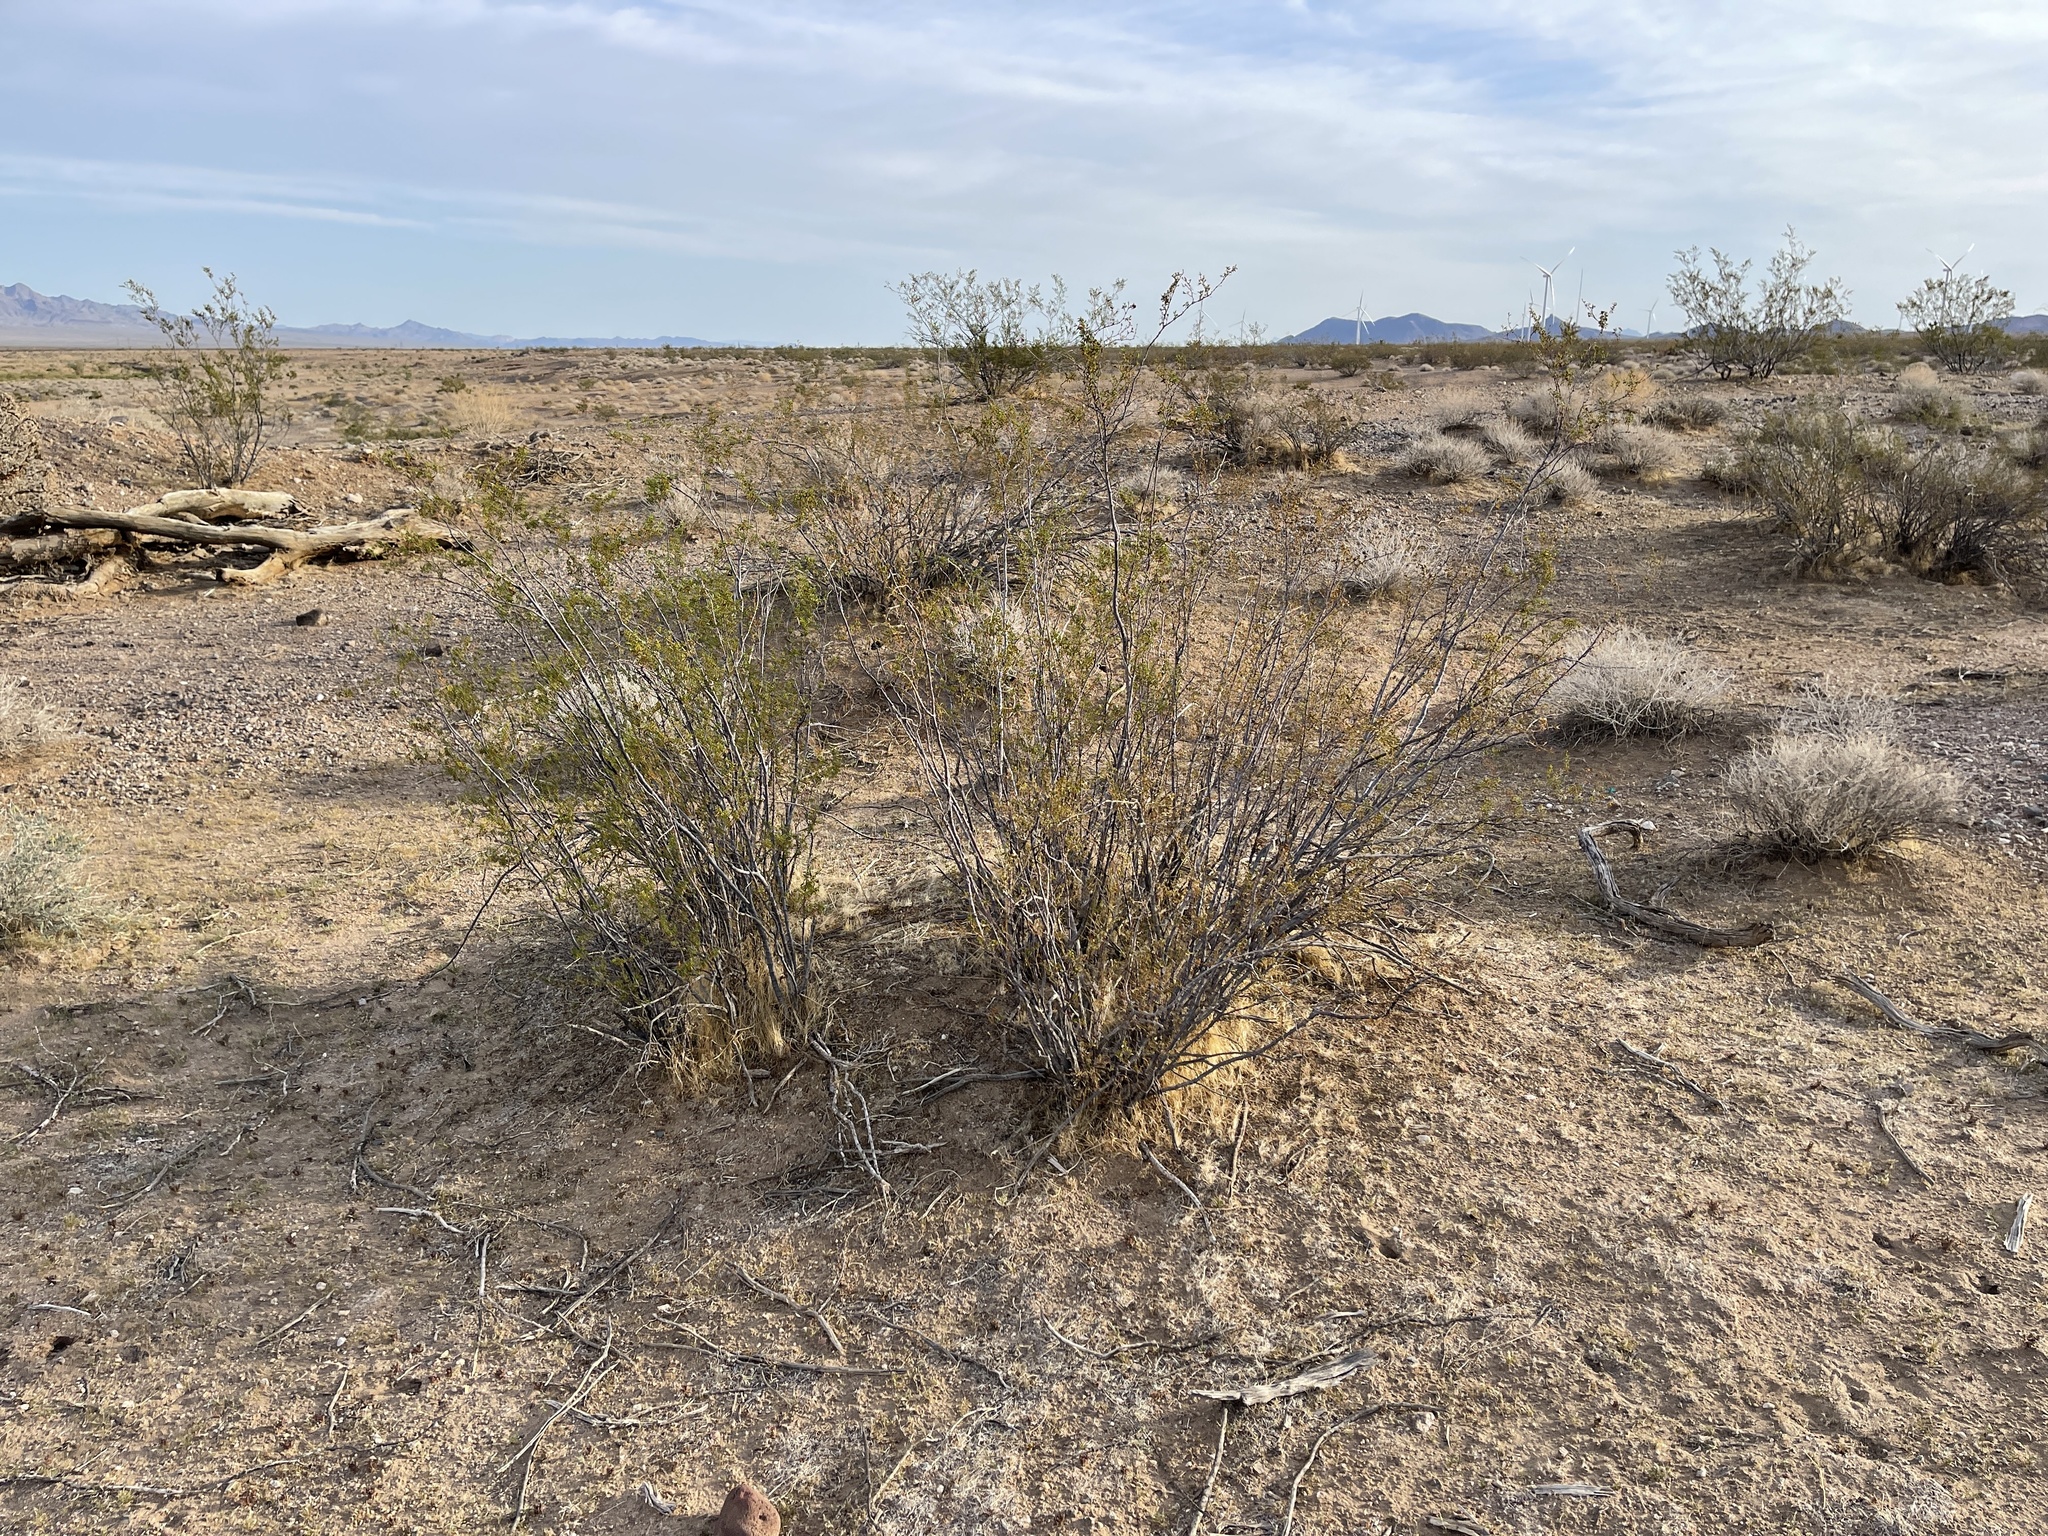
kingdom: Plantae
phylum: Tracheophyta
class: Magnoliopsida
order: Zygophyllales
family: Zygophyllaceae
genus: Larrea
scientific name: Larrea tridentata
